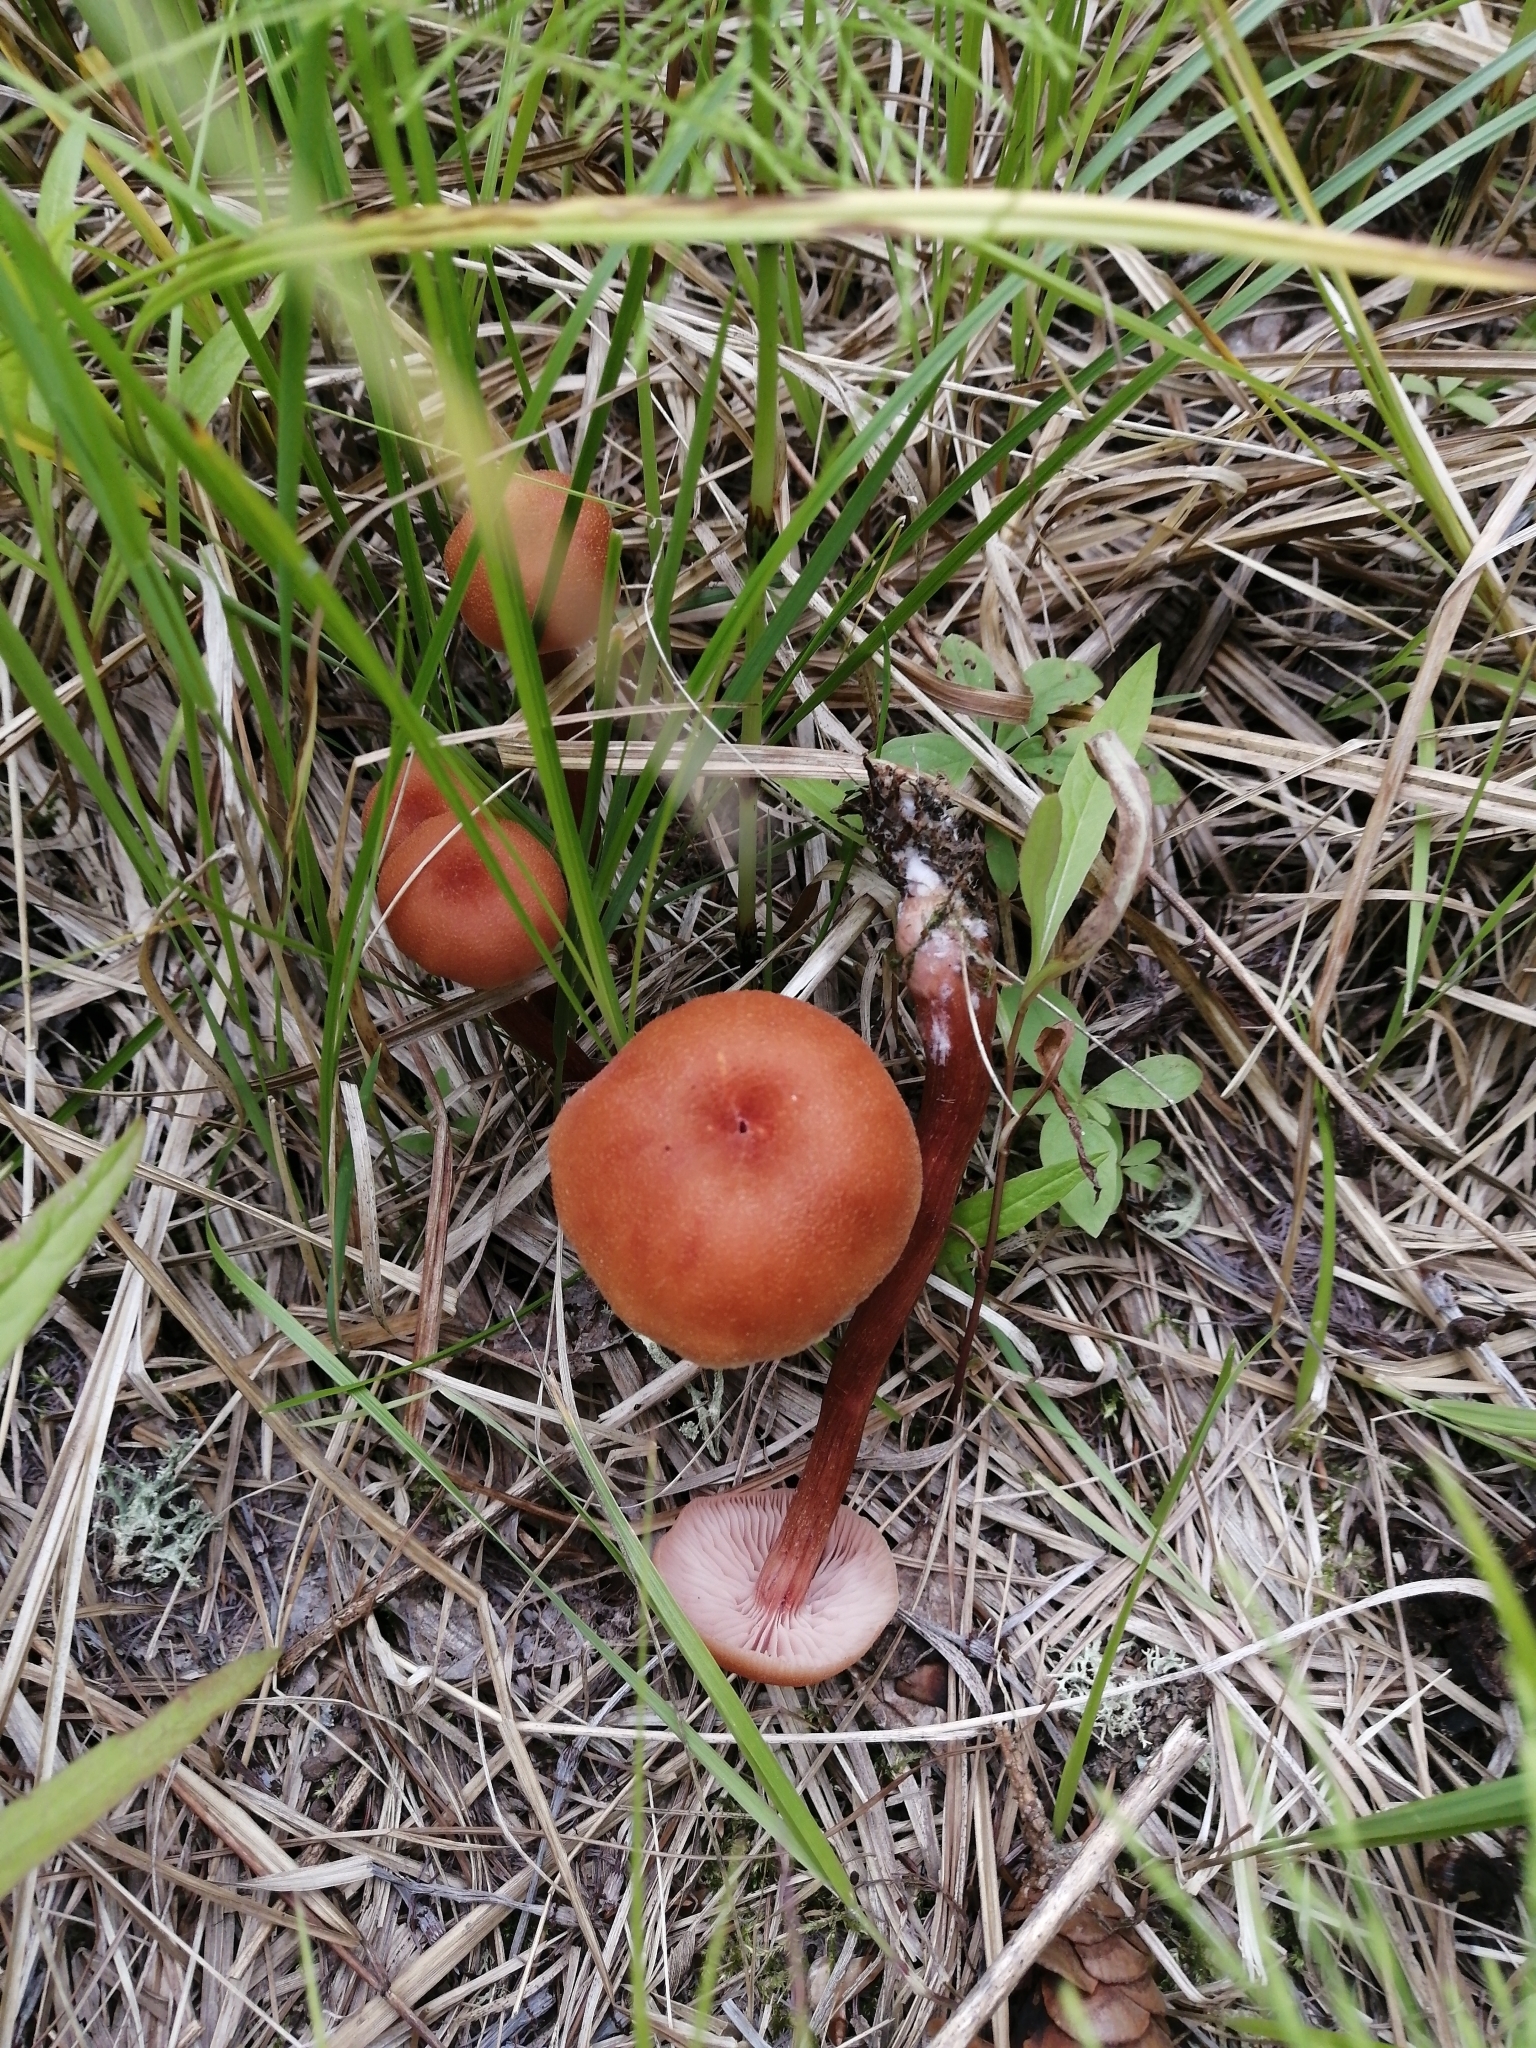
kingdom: Fungi
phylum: Basidiomycota
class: Agaricomycetes
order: Agaricales
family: Hydnangiaceae
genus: Laccaria
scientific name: Laccaria proxima
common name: Scurfy deceiver
